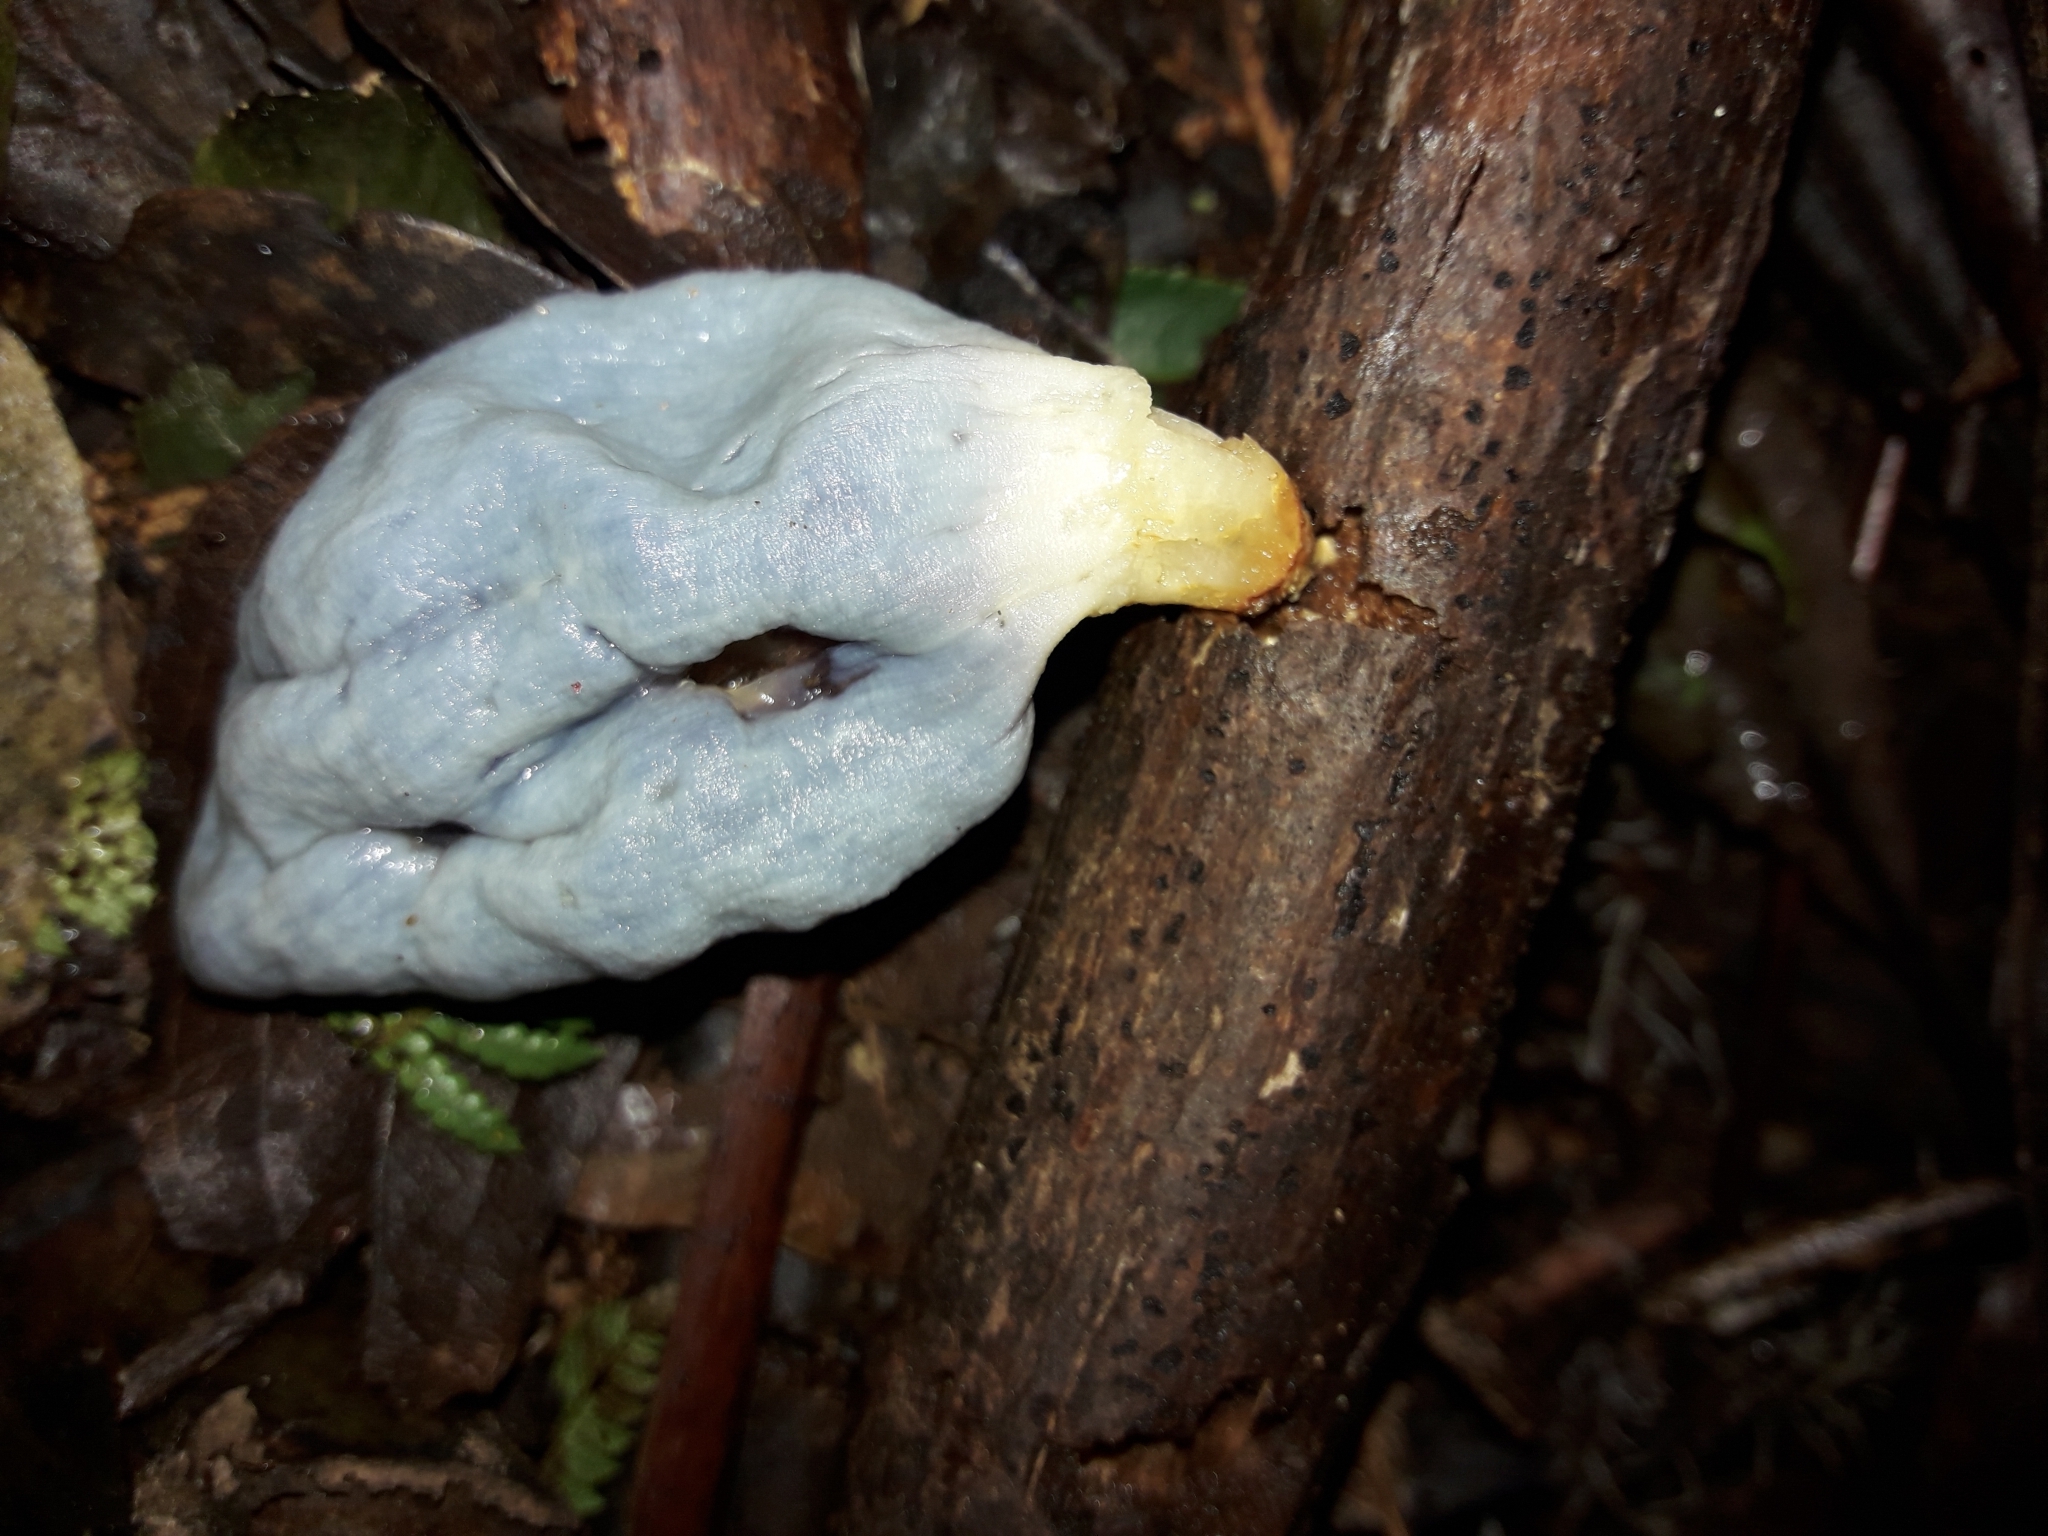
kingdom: Fungi
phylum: Basidiomycota
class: Agaricomycetes
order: Agaricales
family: Agaricaceae
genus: Clavogaster
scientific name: Clavogaster virescens
